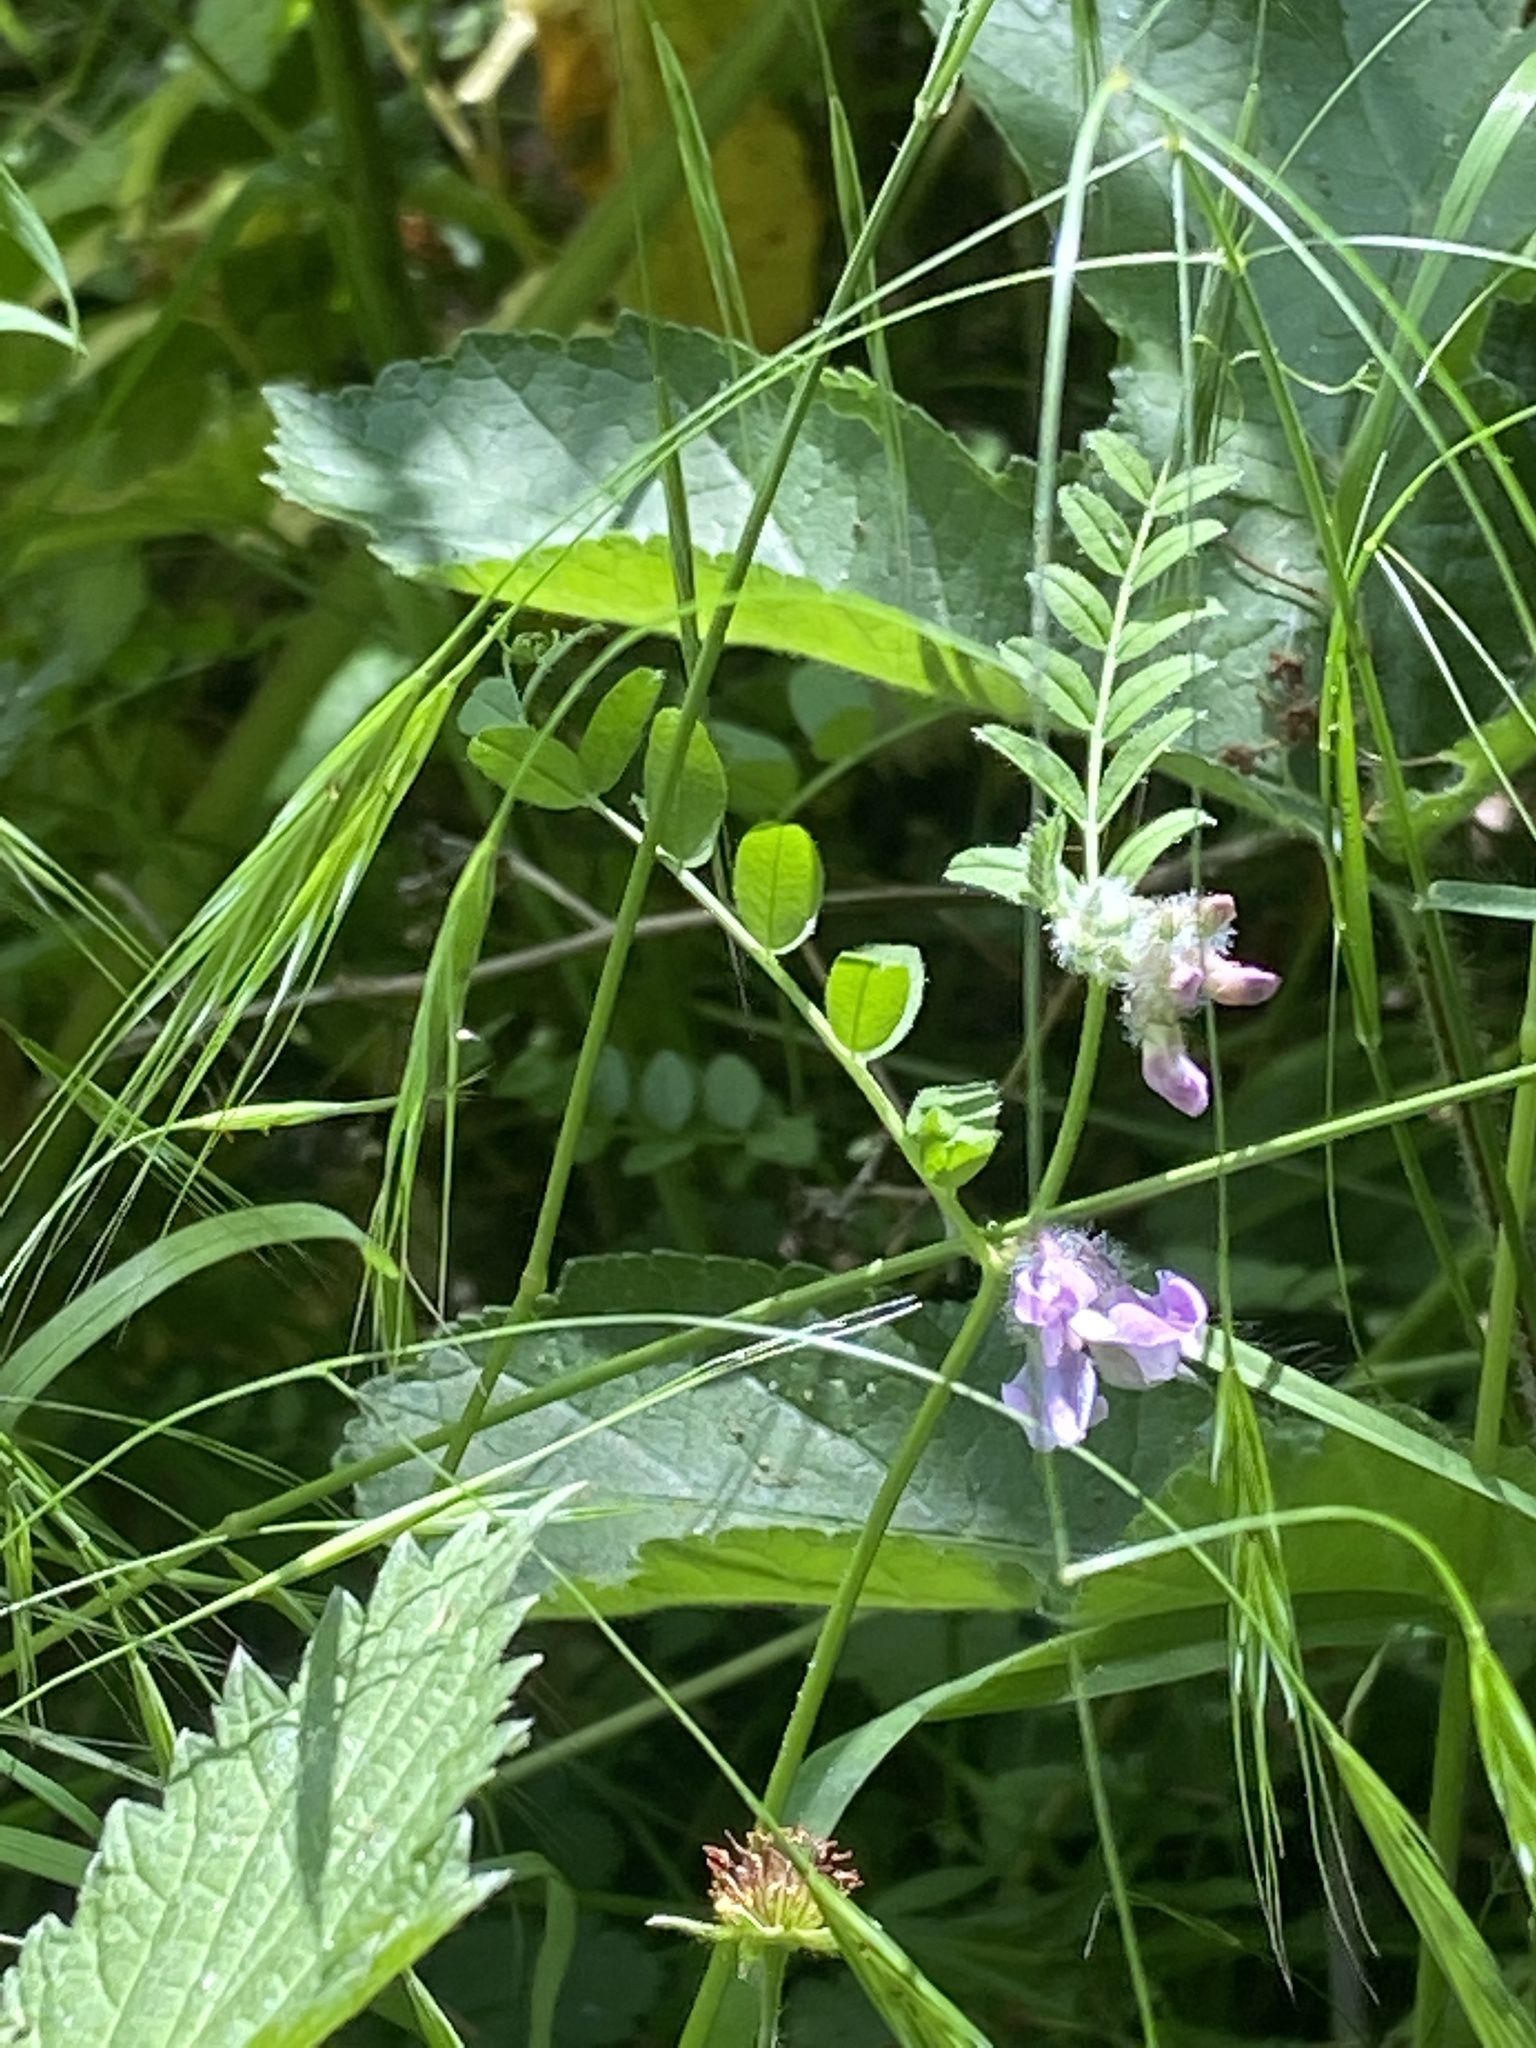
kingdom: Plantae
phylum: Tracheophyta
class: Magnoliopsida
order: Fabales
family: Fabaceae
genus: Vicia
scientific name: Vicia sepium
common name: Bush vetch
